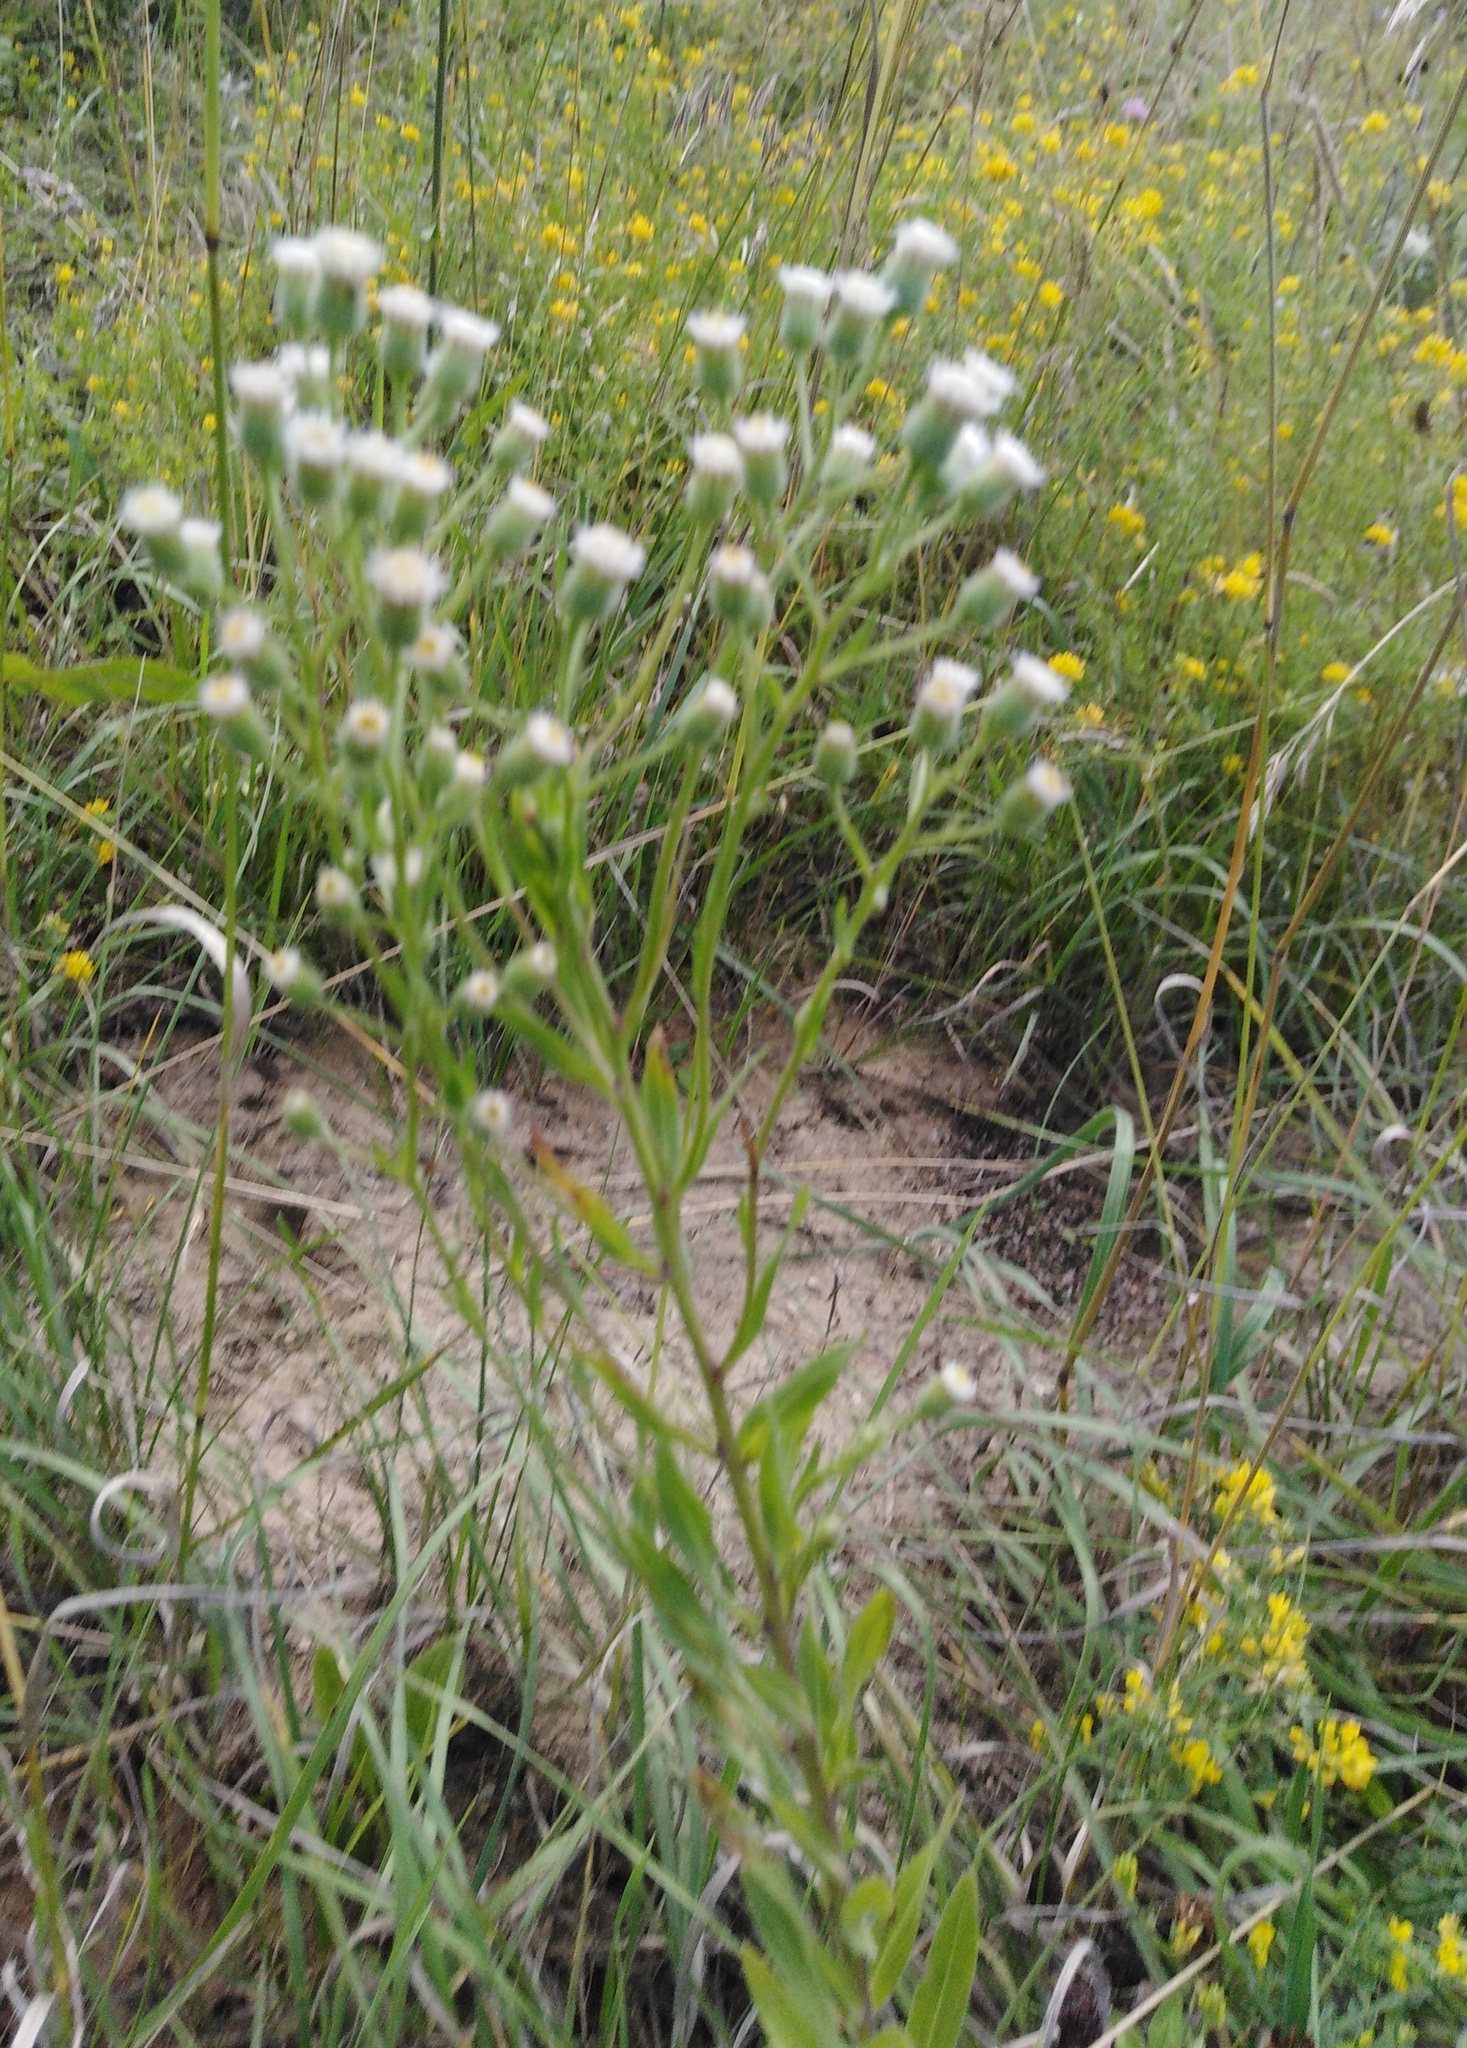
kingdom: Plantae
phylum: Tracheophyta
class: Magnoliopsida
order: Asterales
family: Asteraceae
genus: Erigeron
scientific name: Erigeron podolicus
